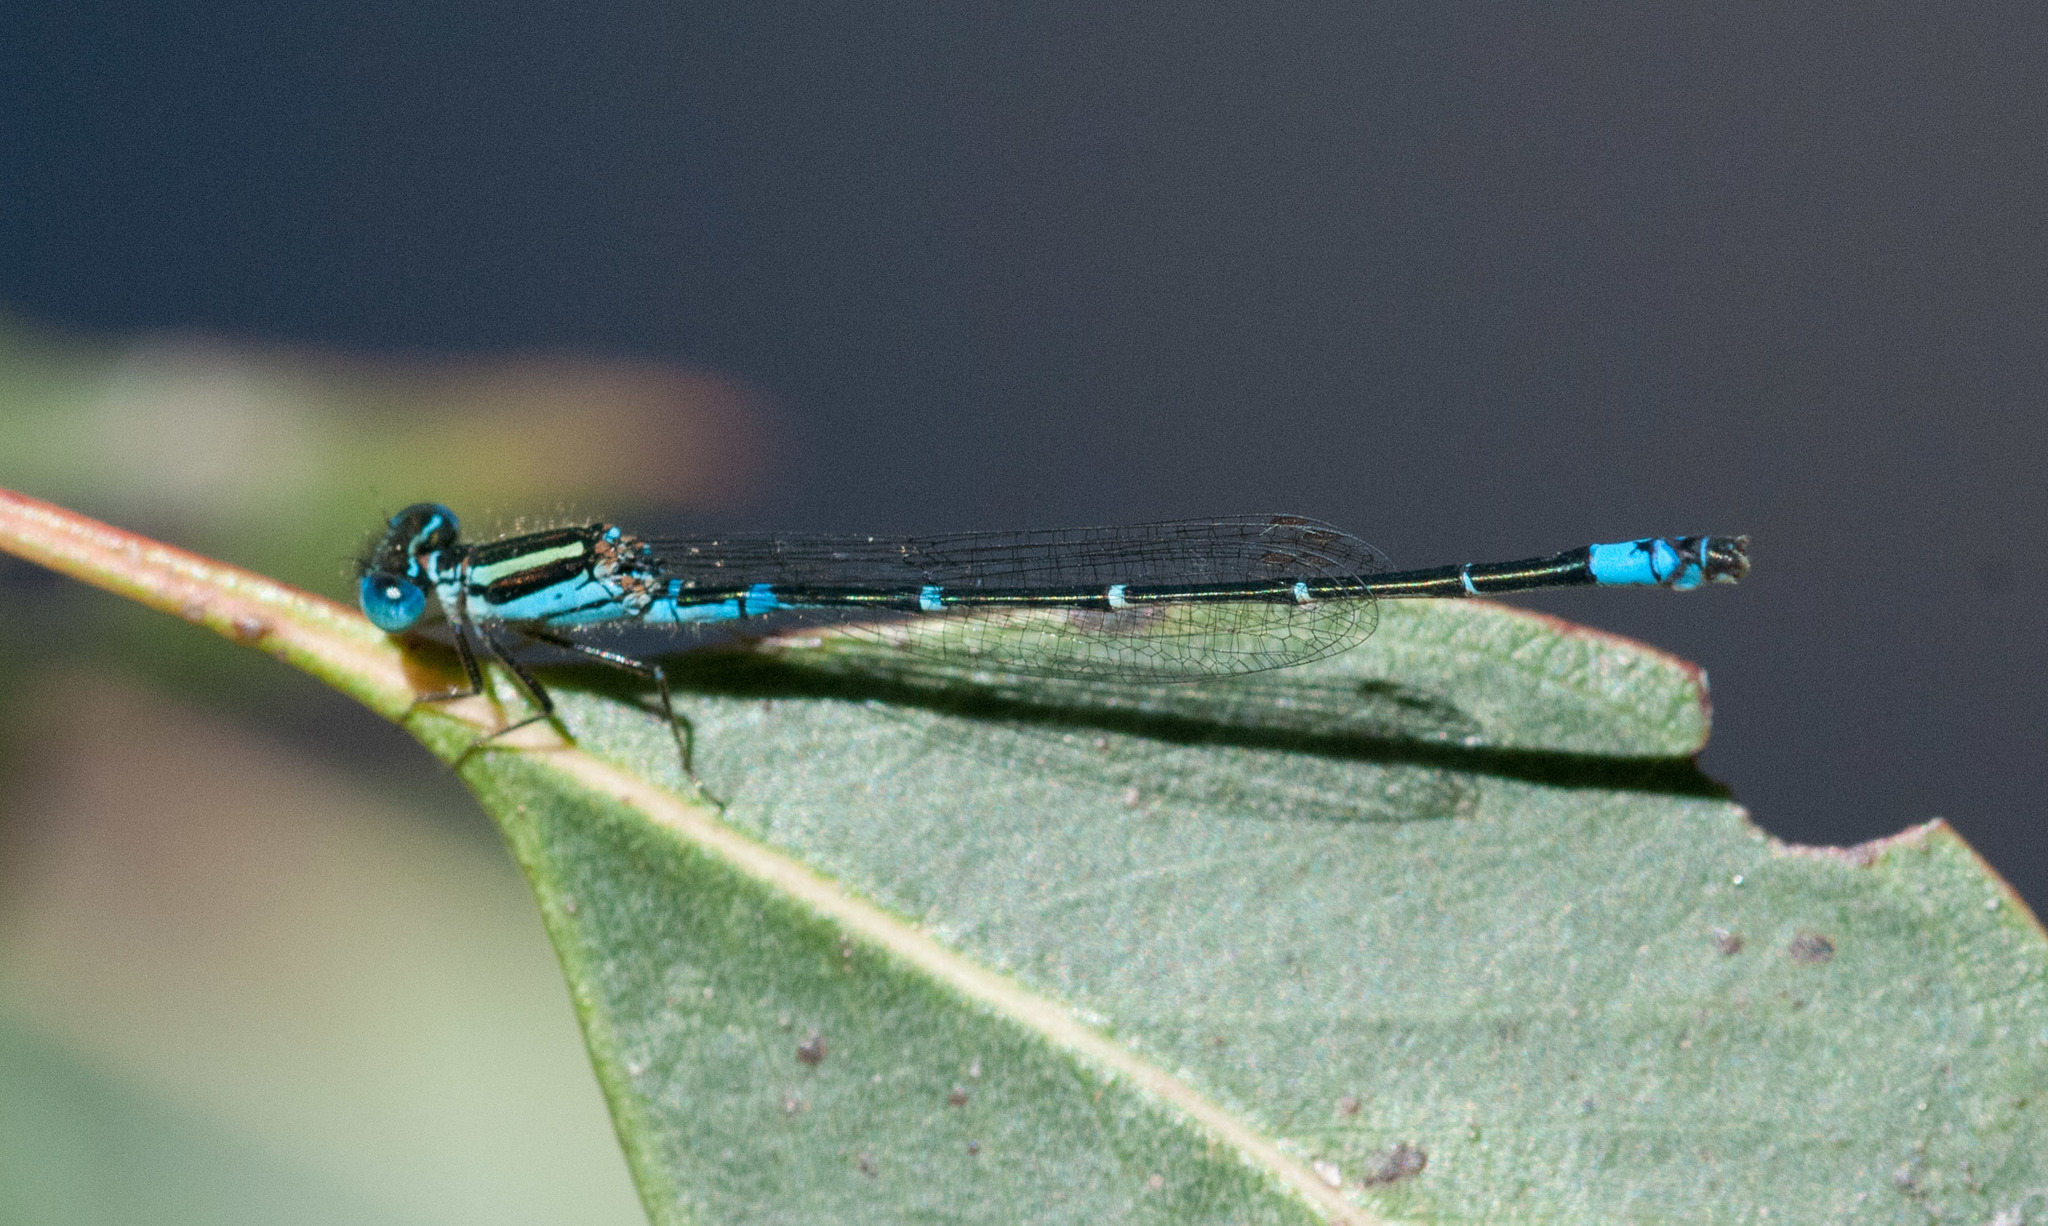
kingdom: Animalia
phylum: Arthropoda
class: Insecta
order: Odonata
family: Coenagrionidae
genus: Austroagrion
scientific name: Austroagrion watsoni
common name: Eastern billabongfly
